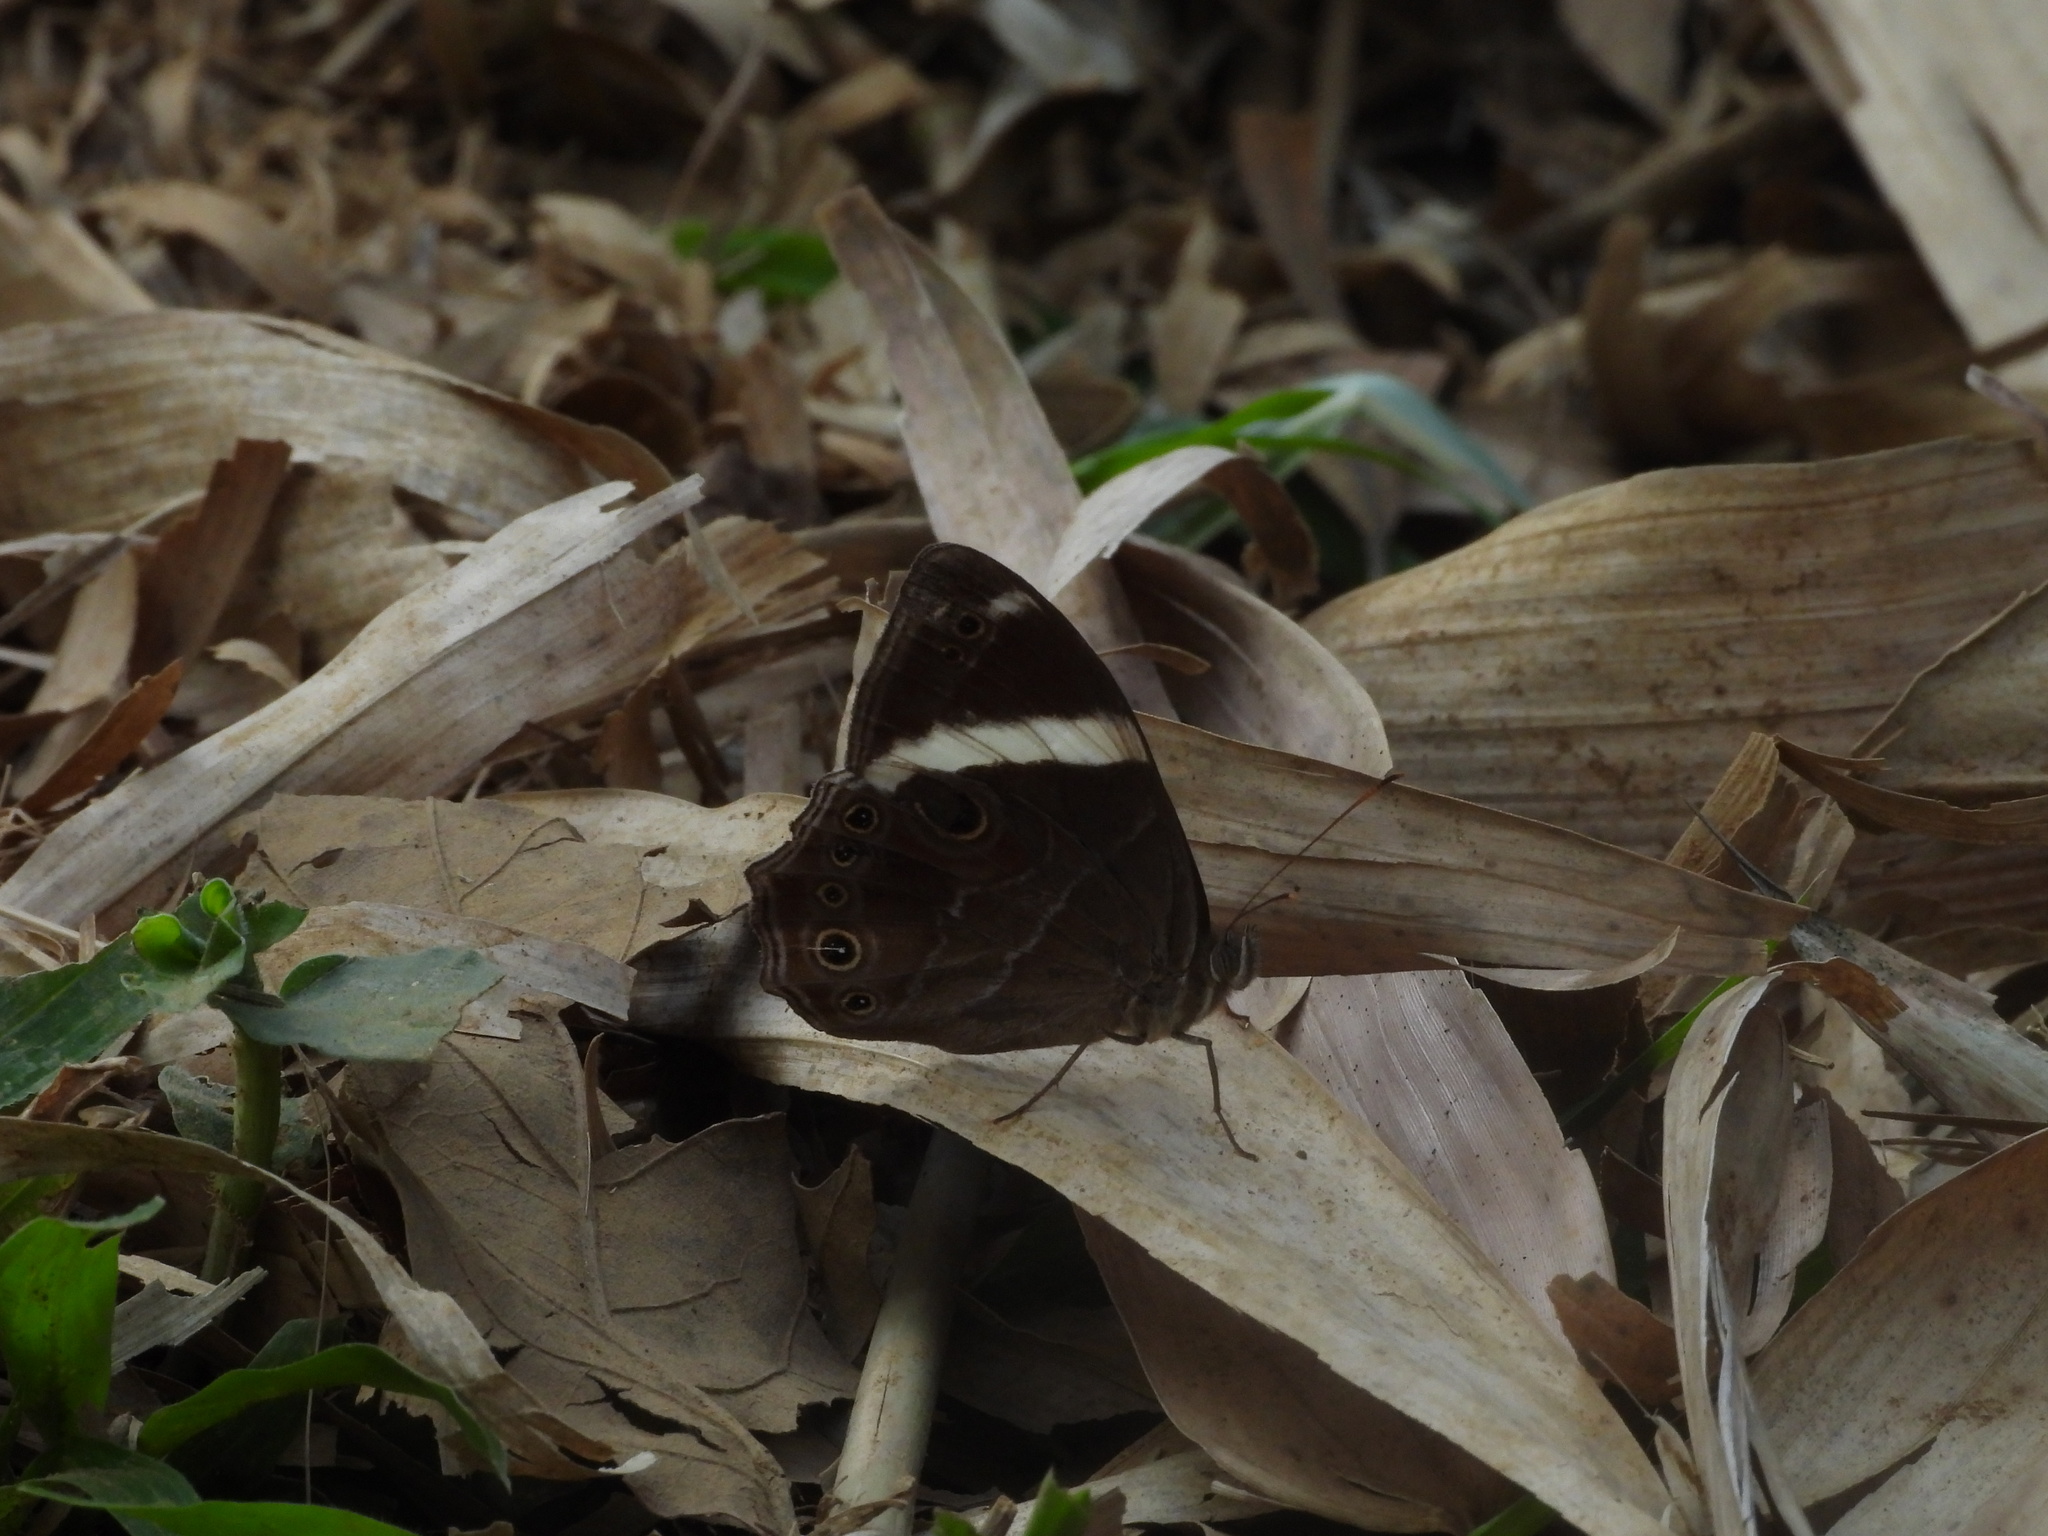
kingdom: Animalia
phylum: Arthropoda
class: Insecta
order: Lepidoptera
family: Nymphalidae
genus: Lethe
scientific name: Lethe confusa
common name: Banded treebrown
